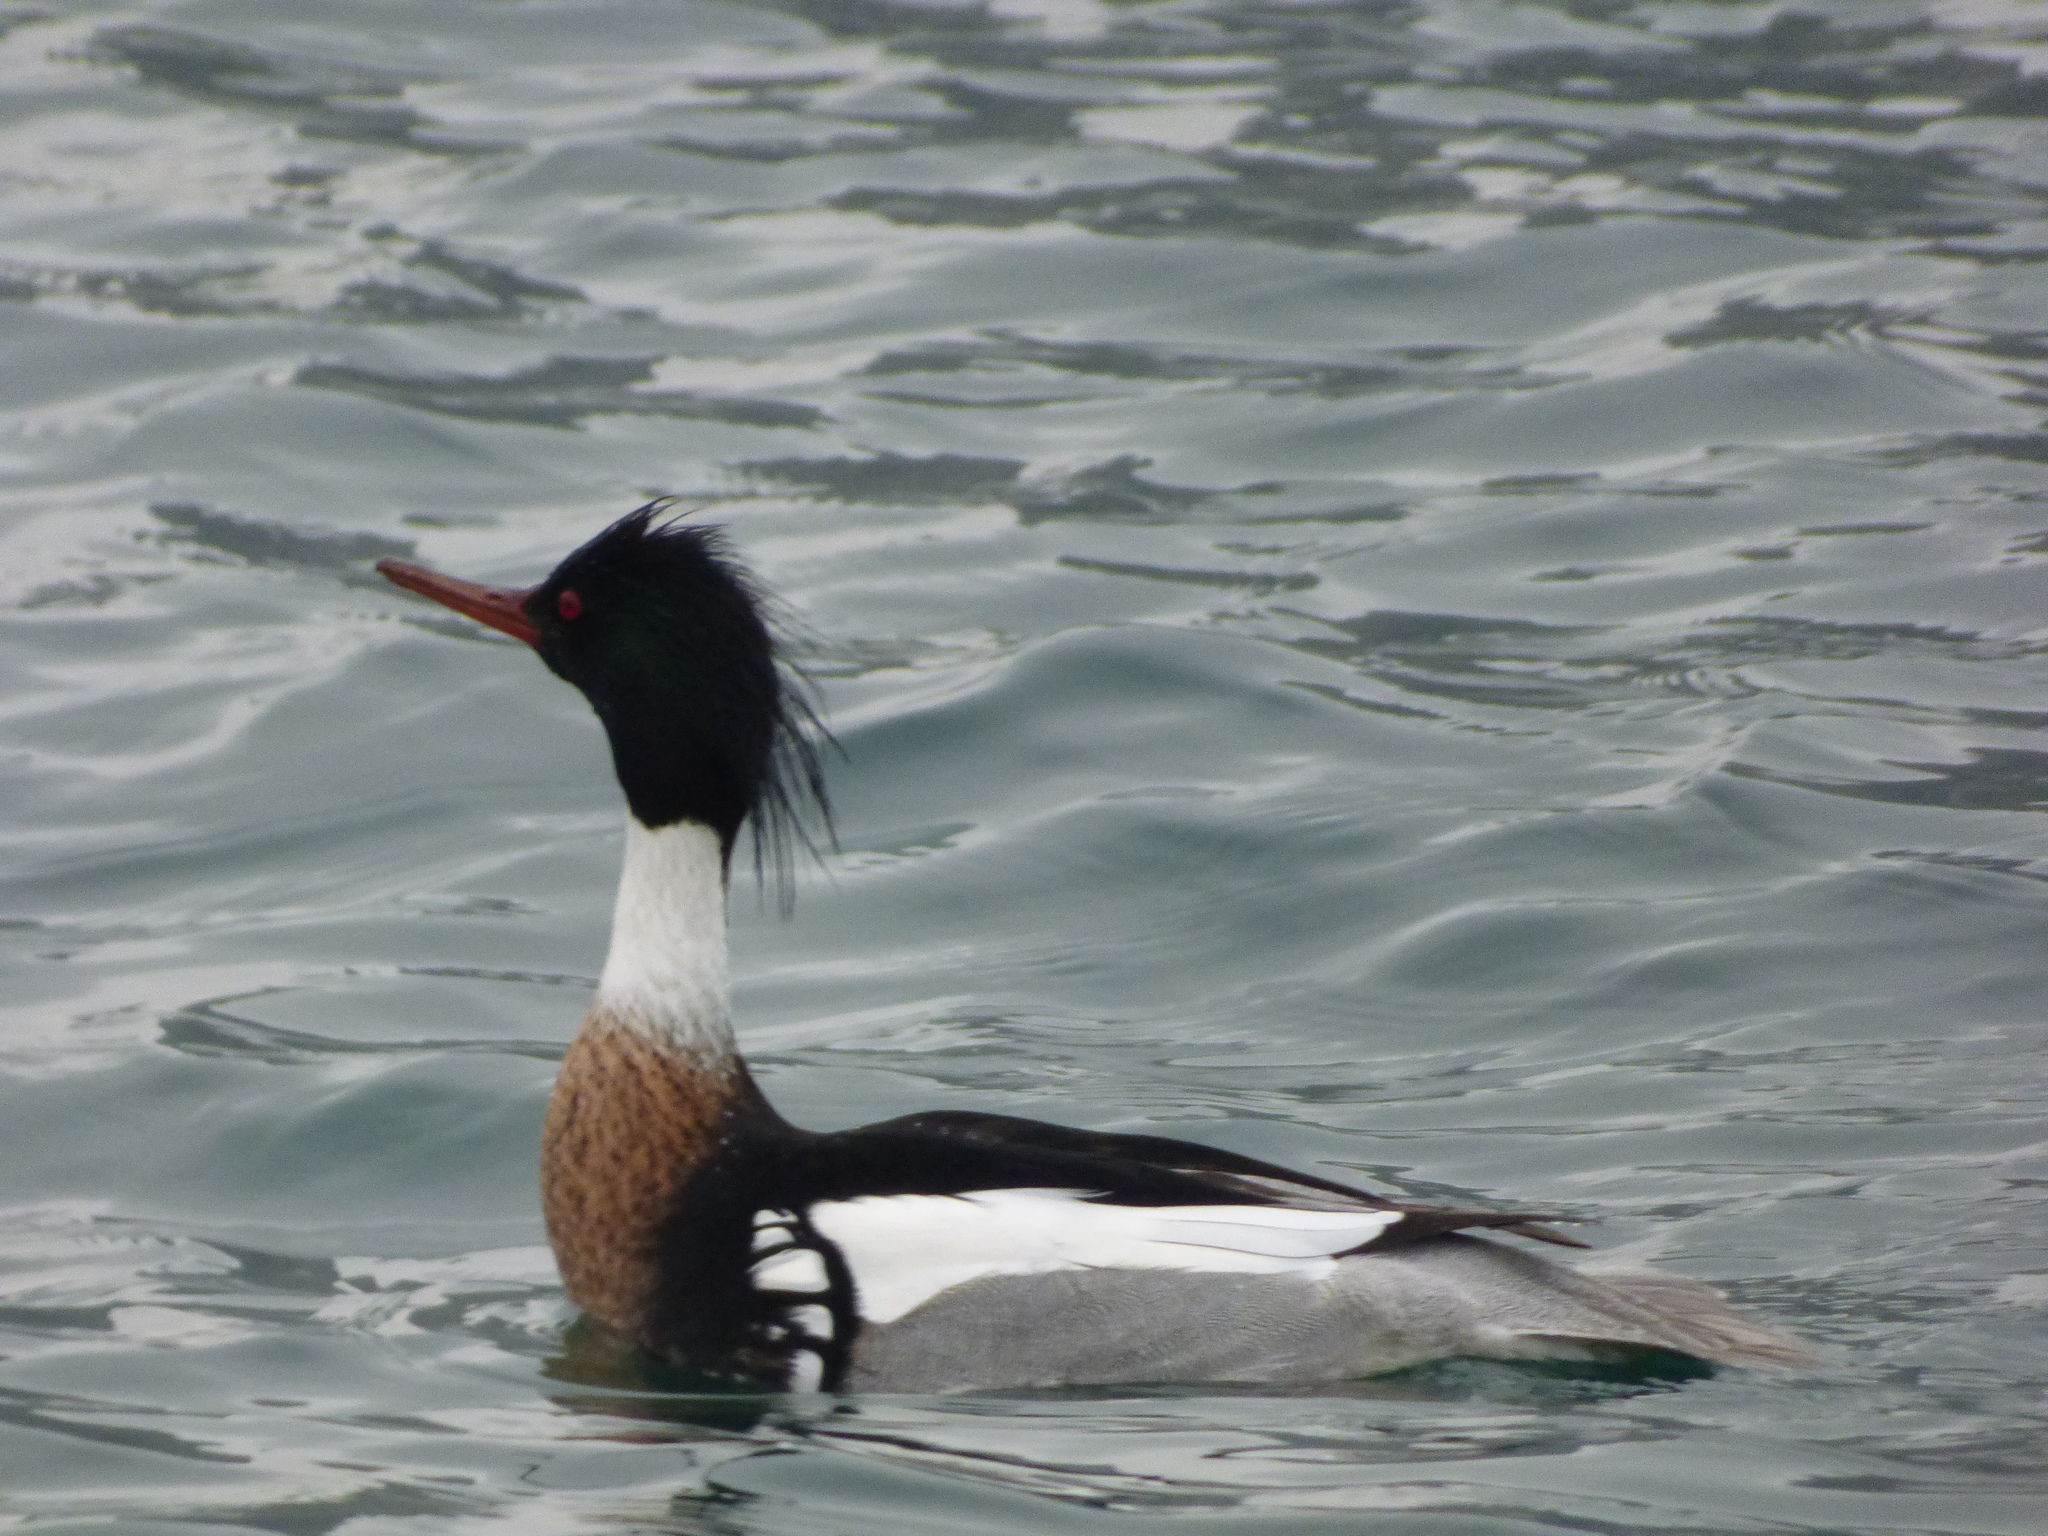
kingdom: Animalia
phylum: Chordata
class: Aves
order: Anseriformes
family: Anatidae
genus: Mergus
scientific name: Mergus serrator
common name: Red-breasted merganser
